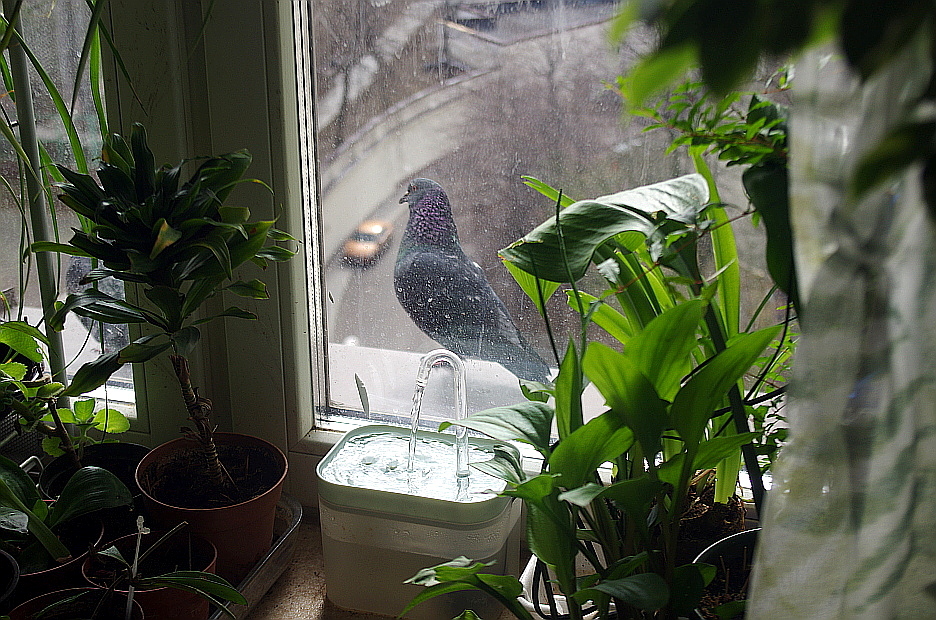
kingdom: Animalia
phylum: Chordata
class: Aves
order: Columbiformes
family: Columbidae
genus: Columba
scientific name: Columba livia
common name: Rock pigeon
